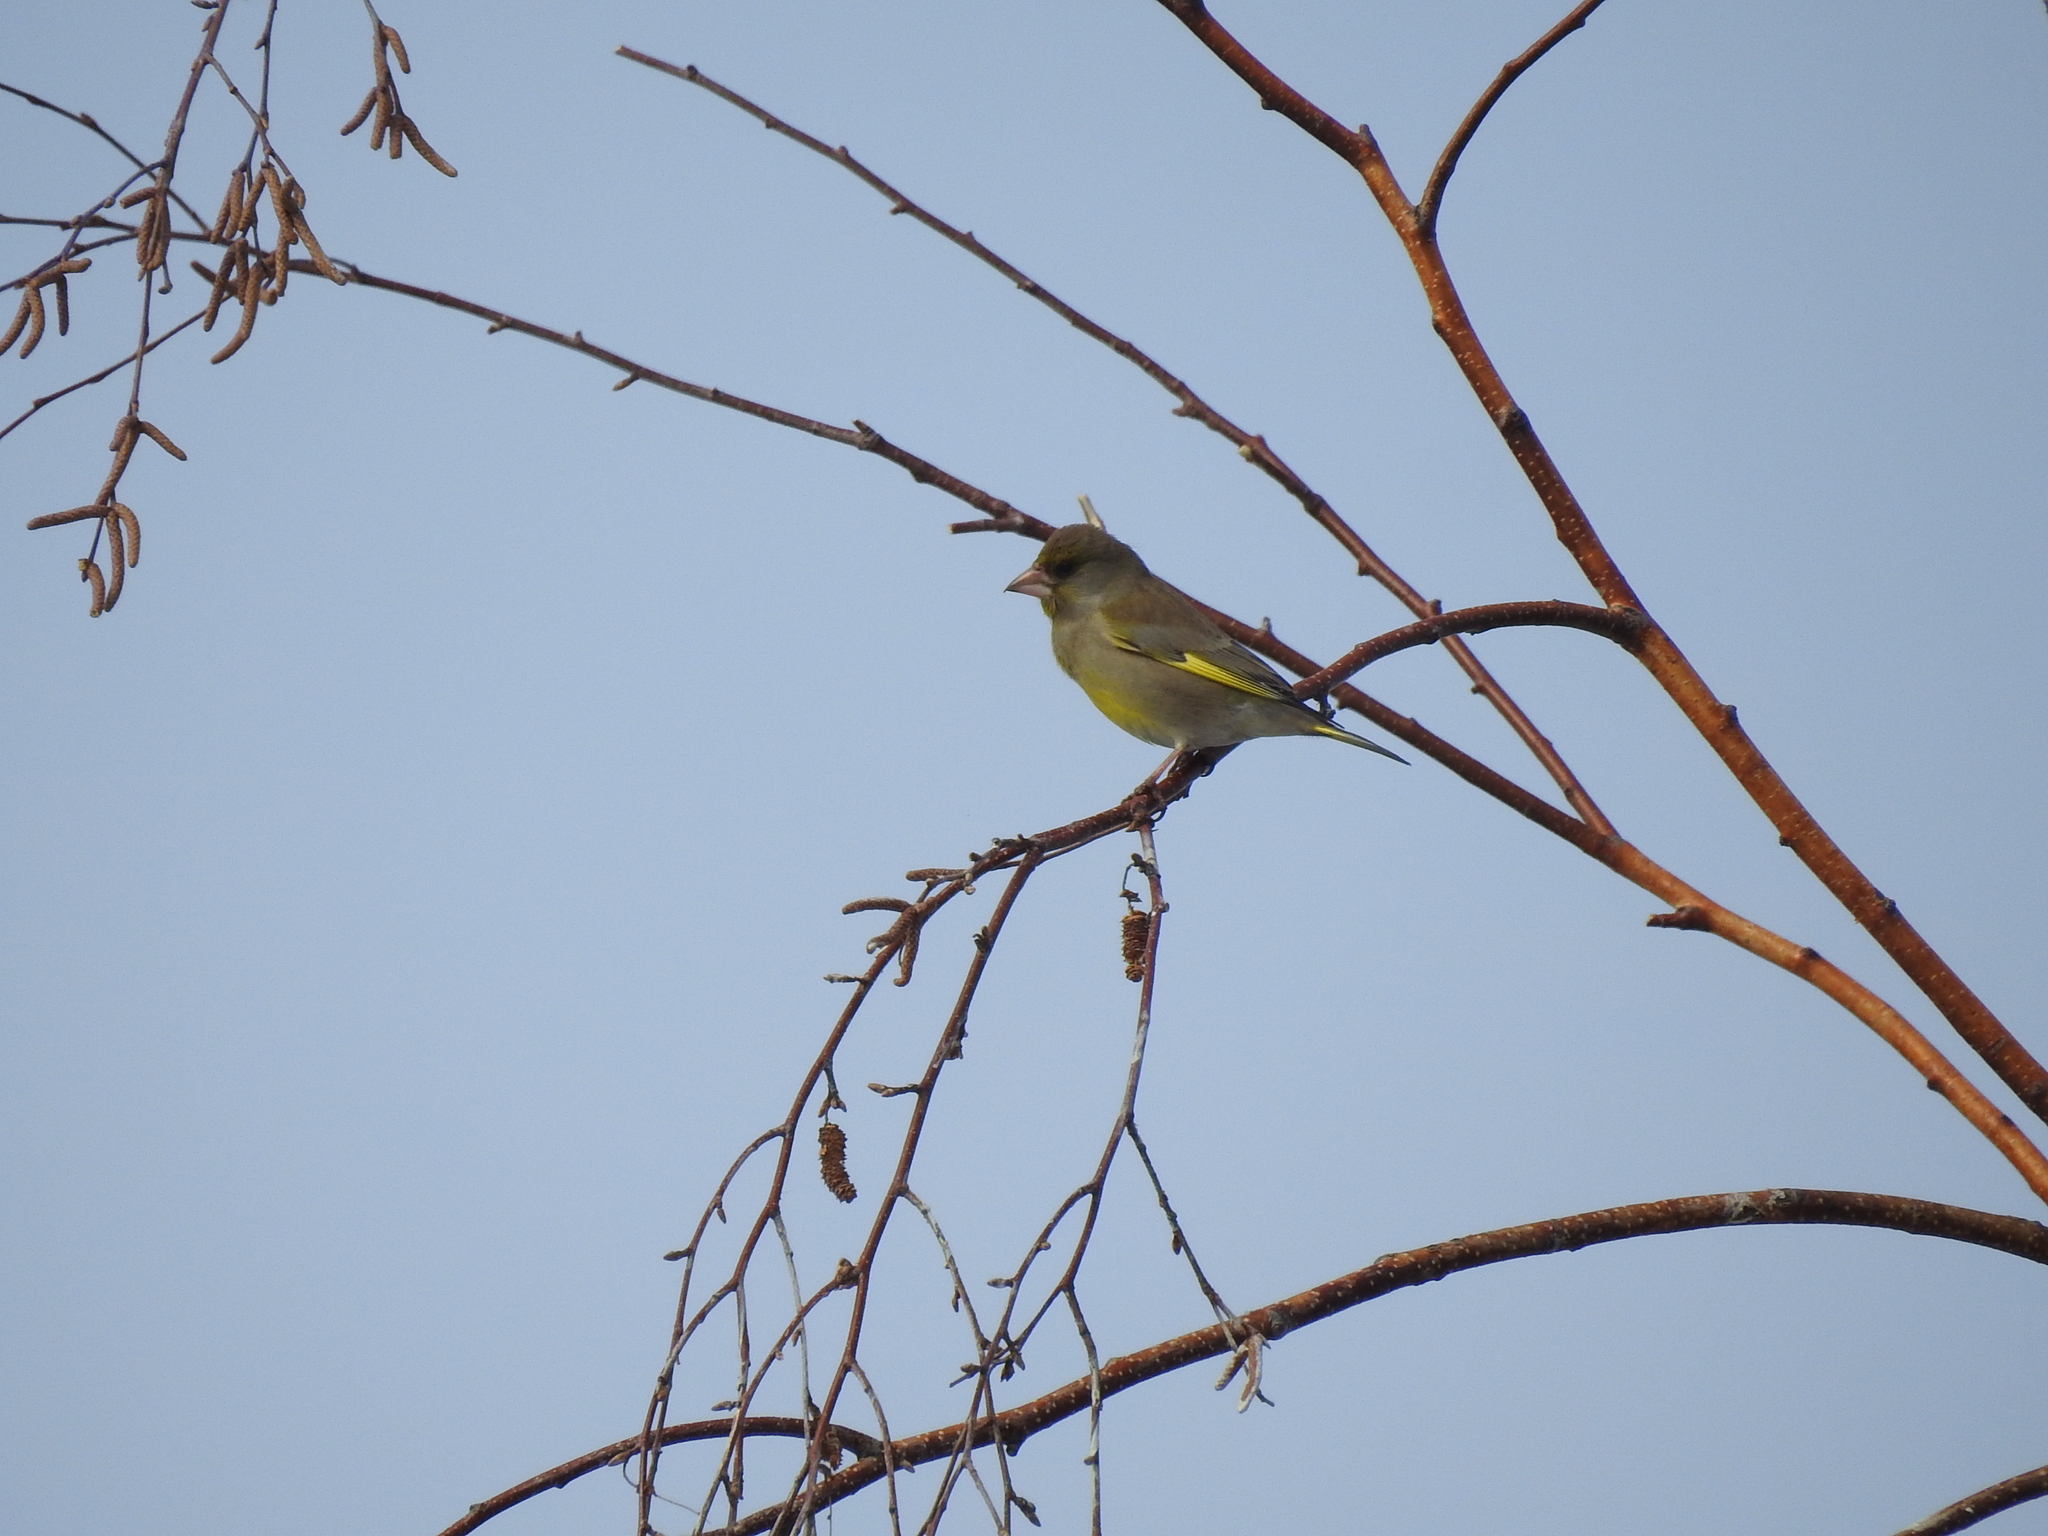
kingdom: Plantae
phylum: Tracheophyta
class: Liliopsida
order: Poales
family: Poaceae
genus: Chloris
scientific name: Chloris chloris
